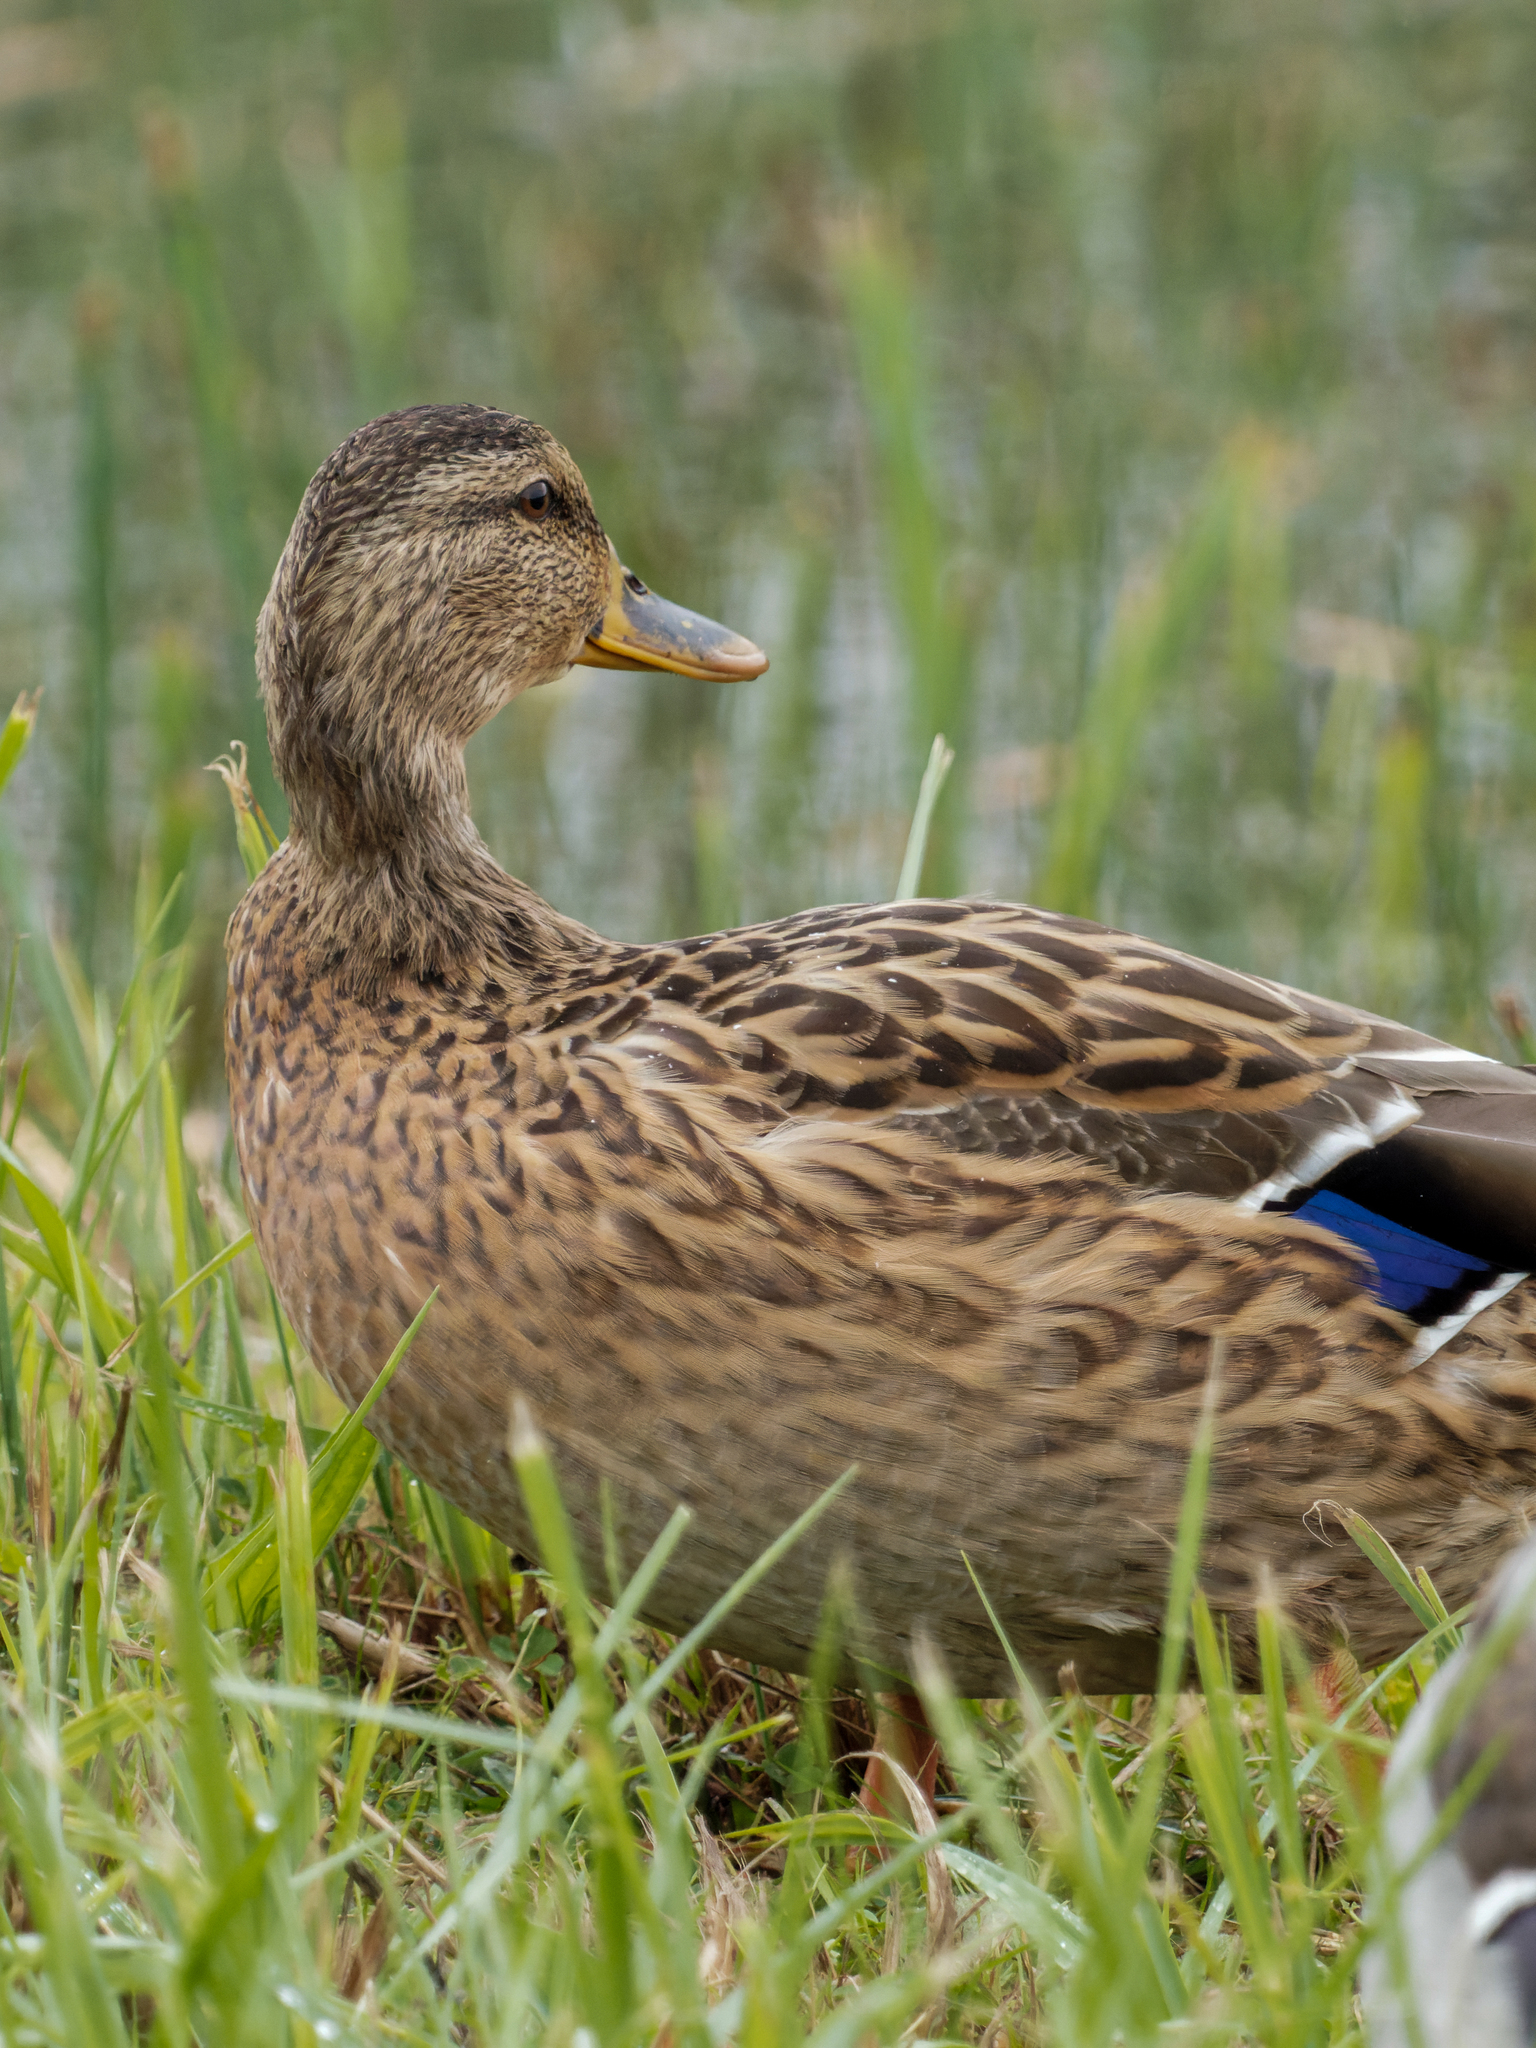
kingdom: Animalia
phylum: Chordata
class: Aves
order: Anseriformes
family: Anatidae
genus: Anas
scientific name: Anas platyrhynchos
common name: Mallard
